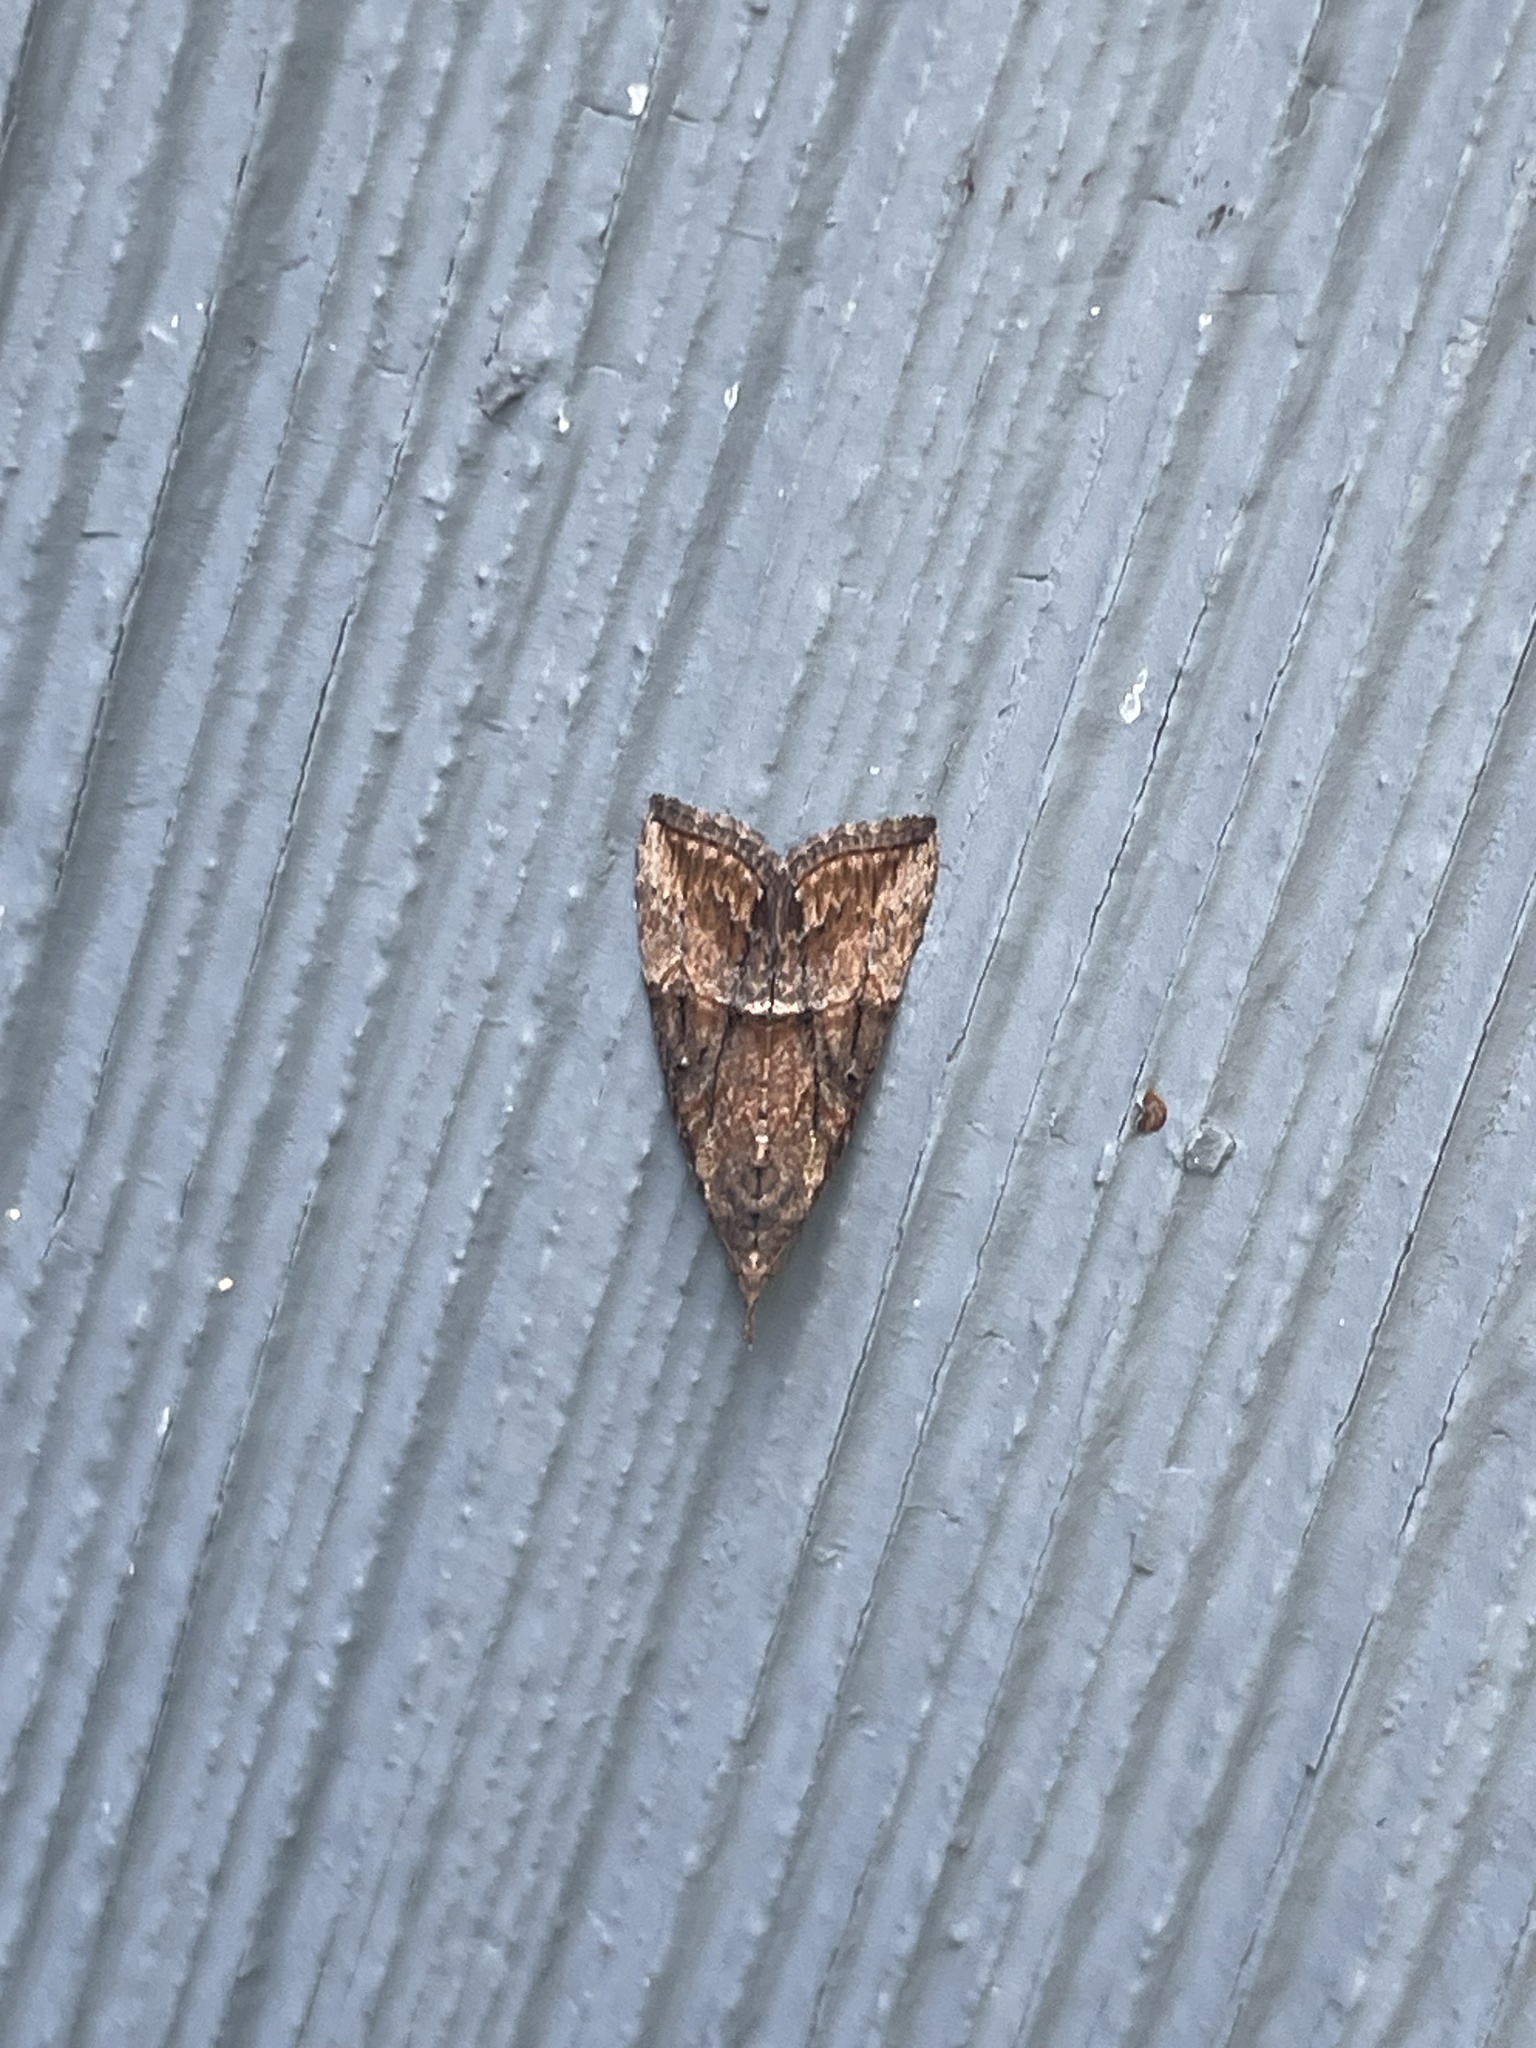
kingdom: Animalia
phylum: Arthropoda
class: Insecta
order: Lepidoptera
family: Erebidae
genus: Hypena
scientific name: Hypena scabra
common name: Green cloverworm
